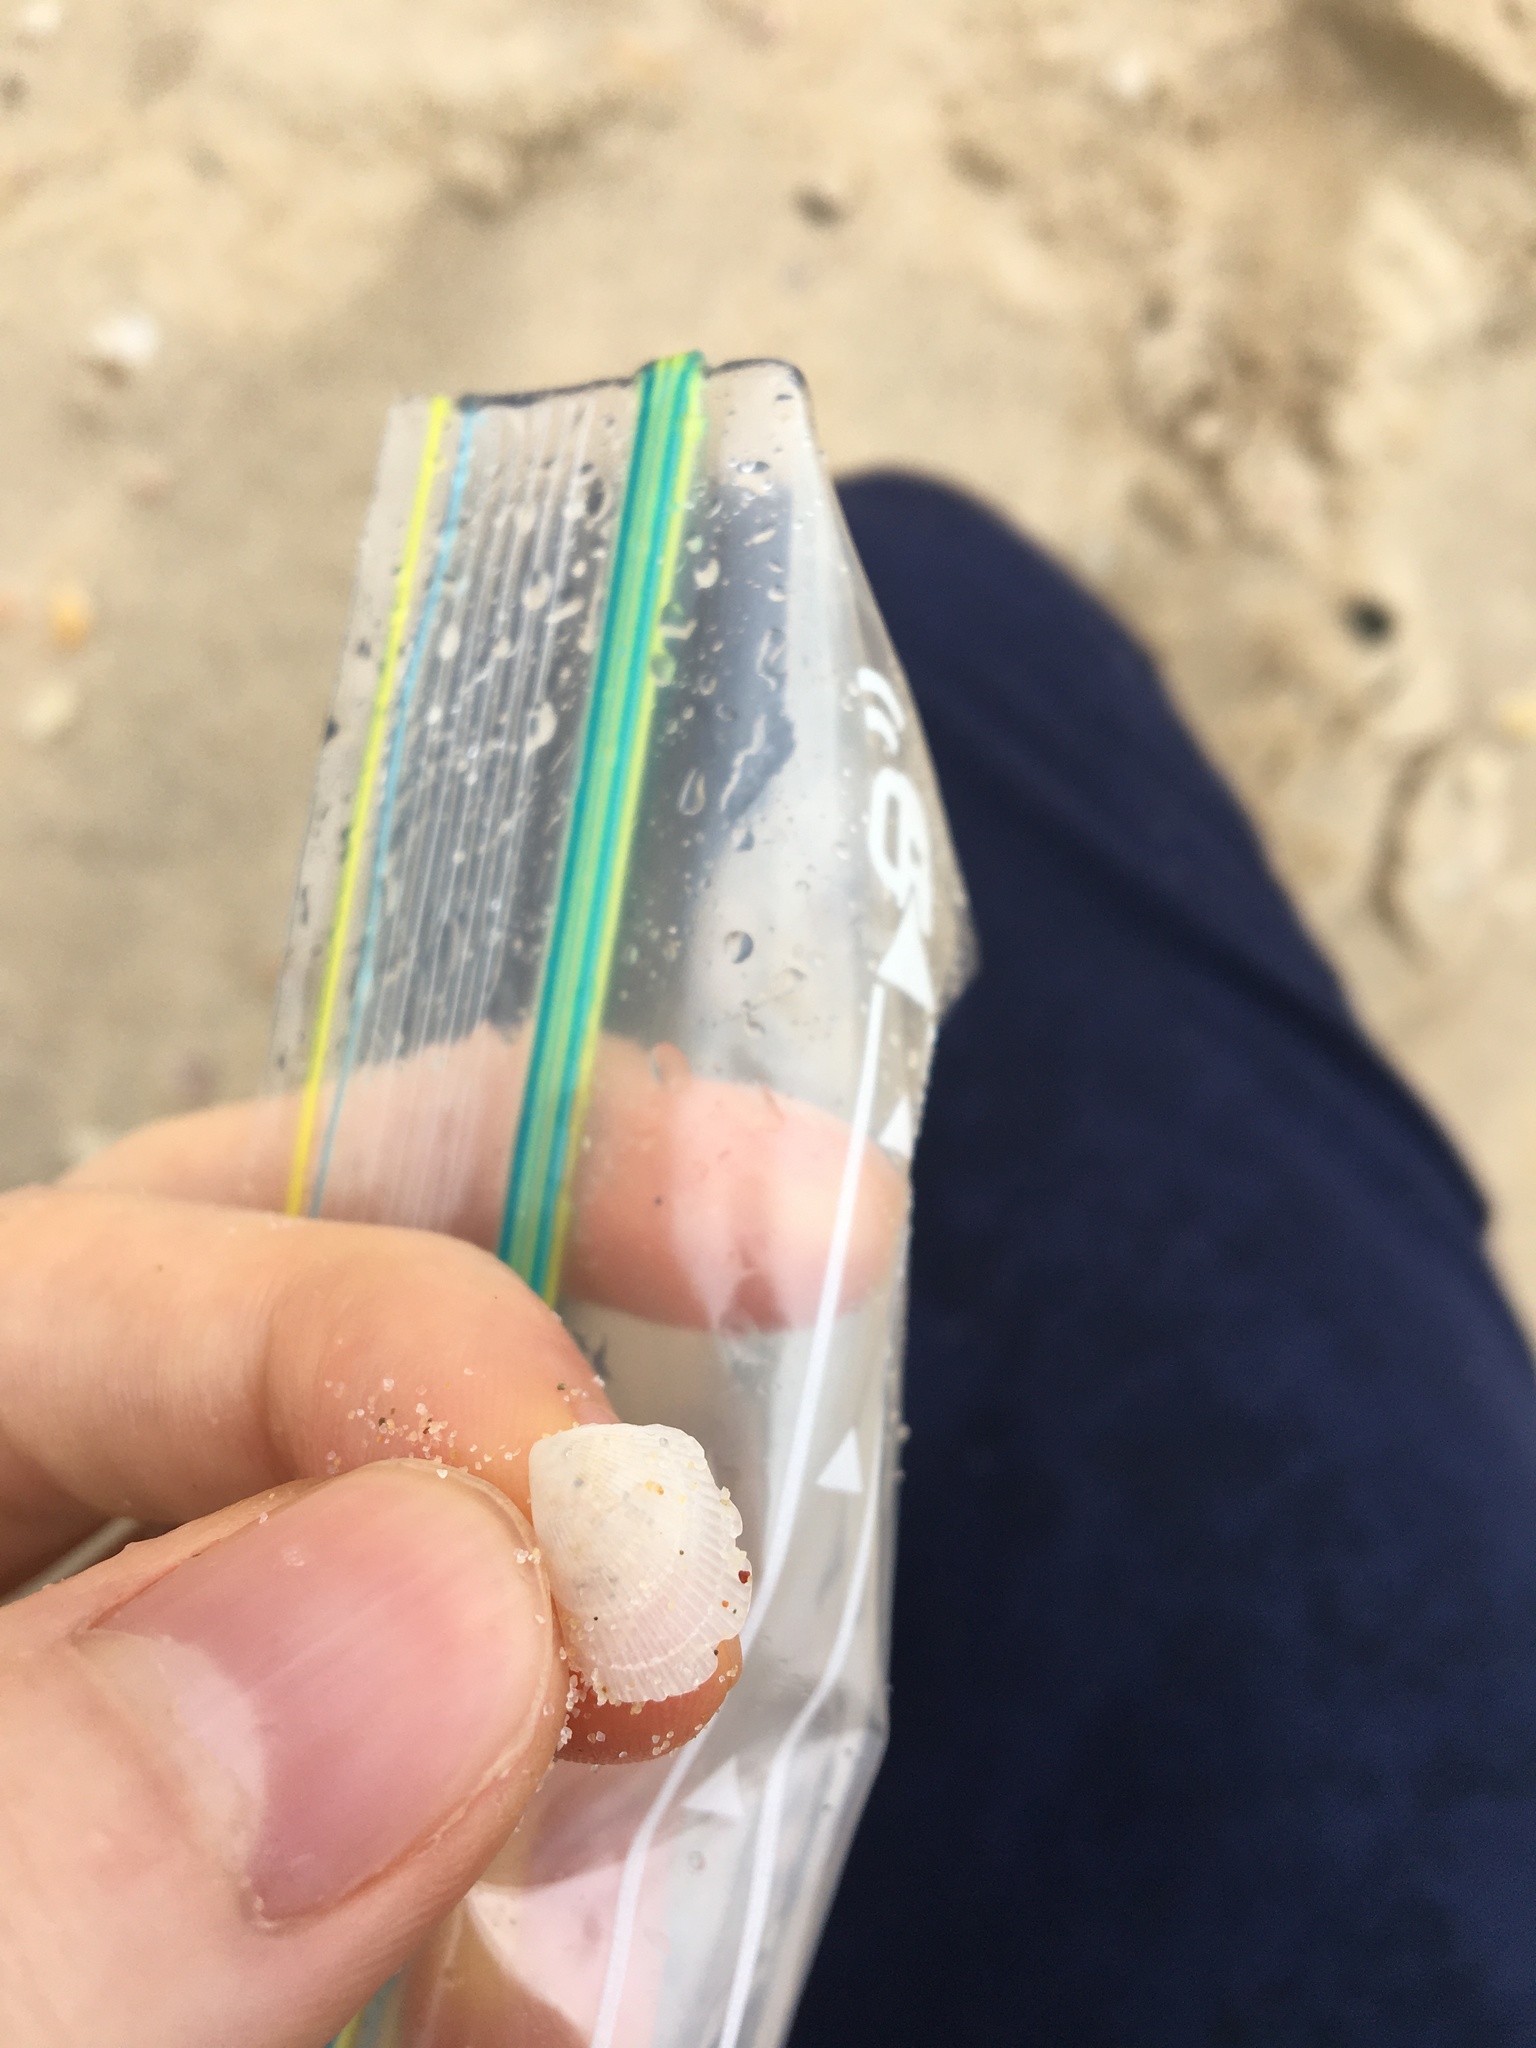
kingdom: Animalia
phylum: Mollusca
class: Bivalvia
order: Limida
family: Limidae
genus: Lima
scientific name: Lima nimbifer
